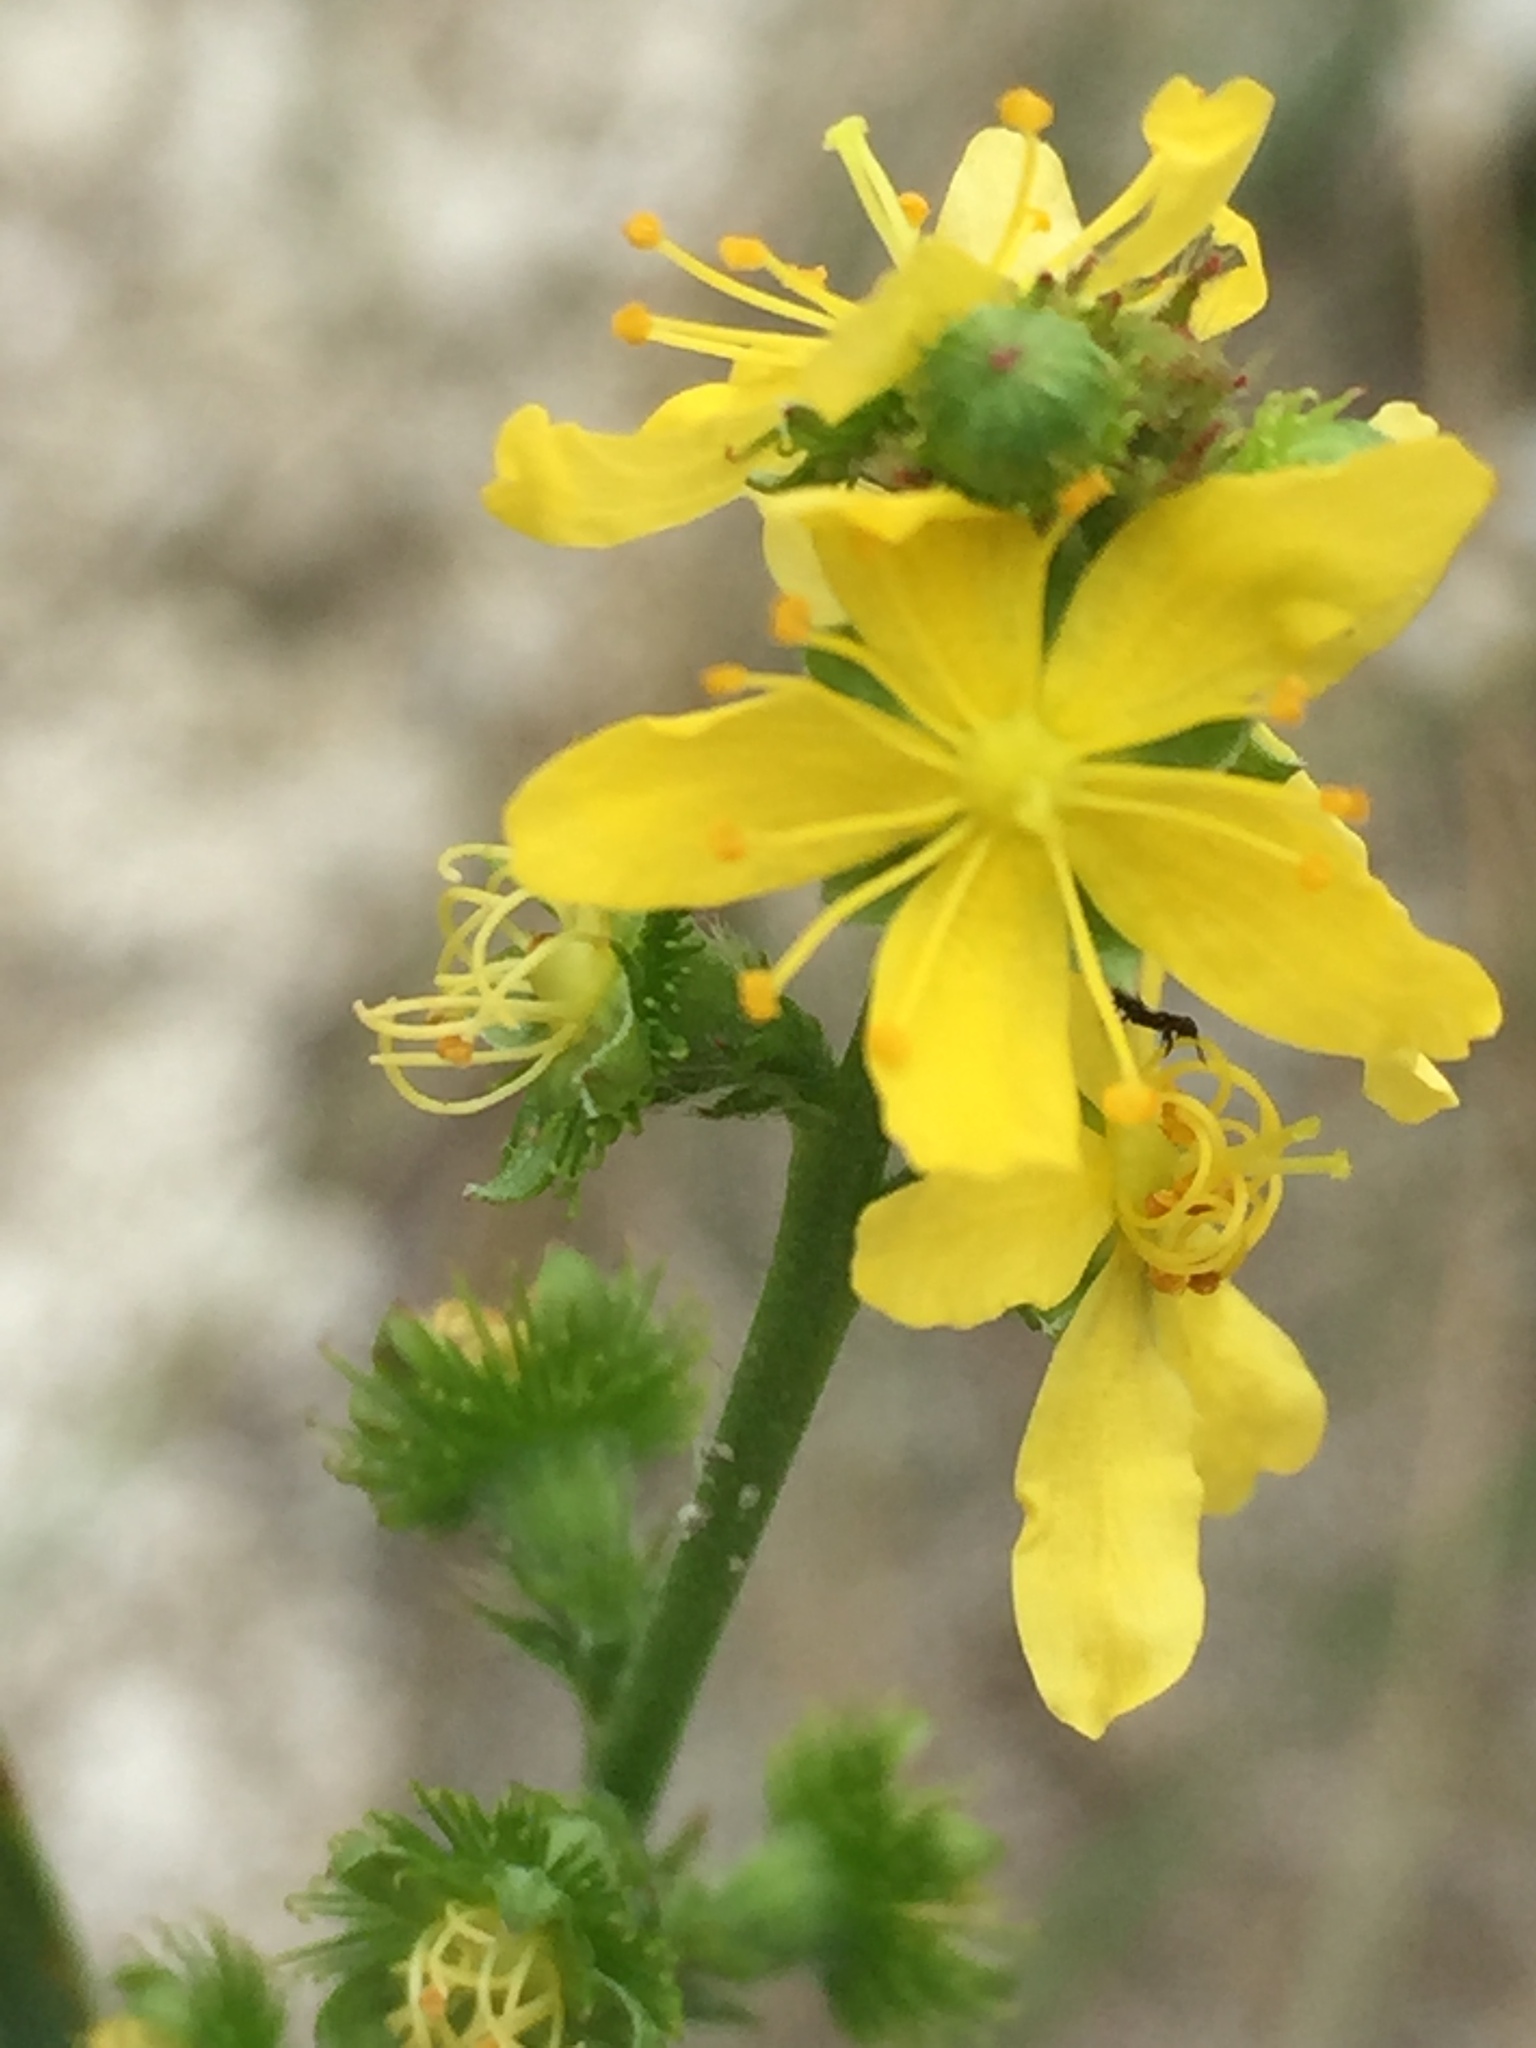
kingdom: Plantae
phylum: Tracheophyta
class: Magnoliopsida
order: Rosales
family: Rosaceae
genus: Agrimonia
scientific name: Agrimonia eupatoria
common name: Agrimony
